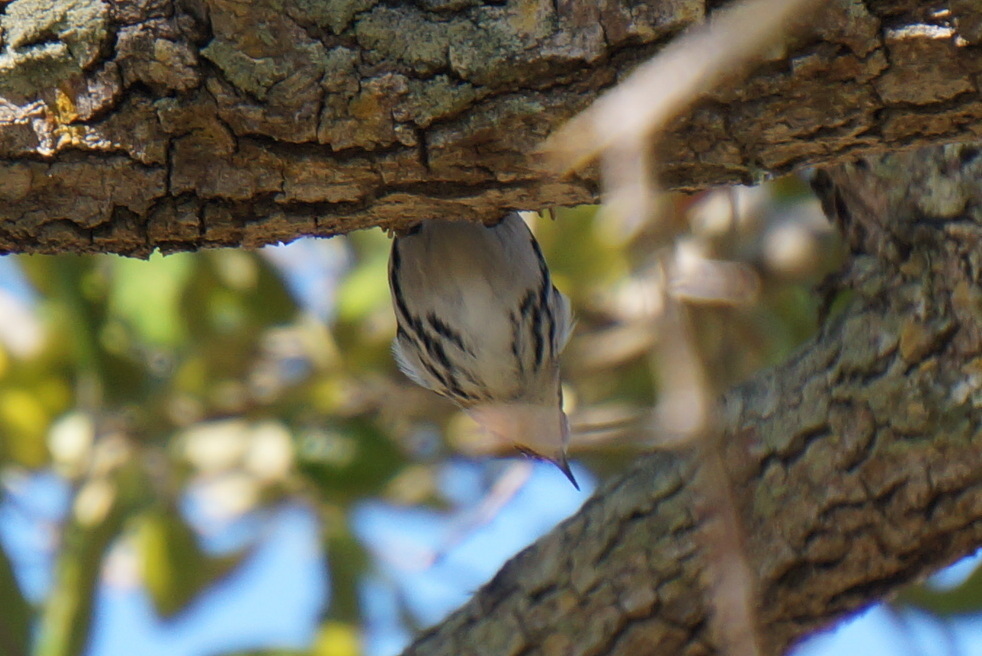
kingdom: Animalia
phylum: Chordata
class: Aves
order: Passeriformes
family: Parulidae
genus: Mniotilta
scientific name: Mniotilta varia
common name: Black-and-white warbler
